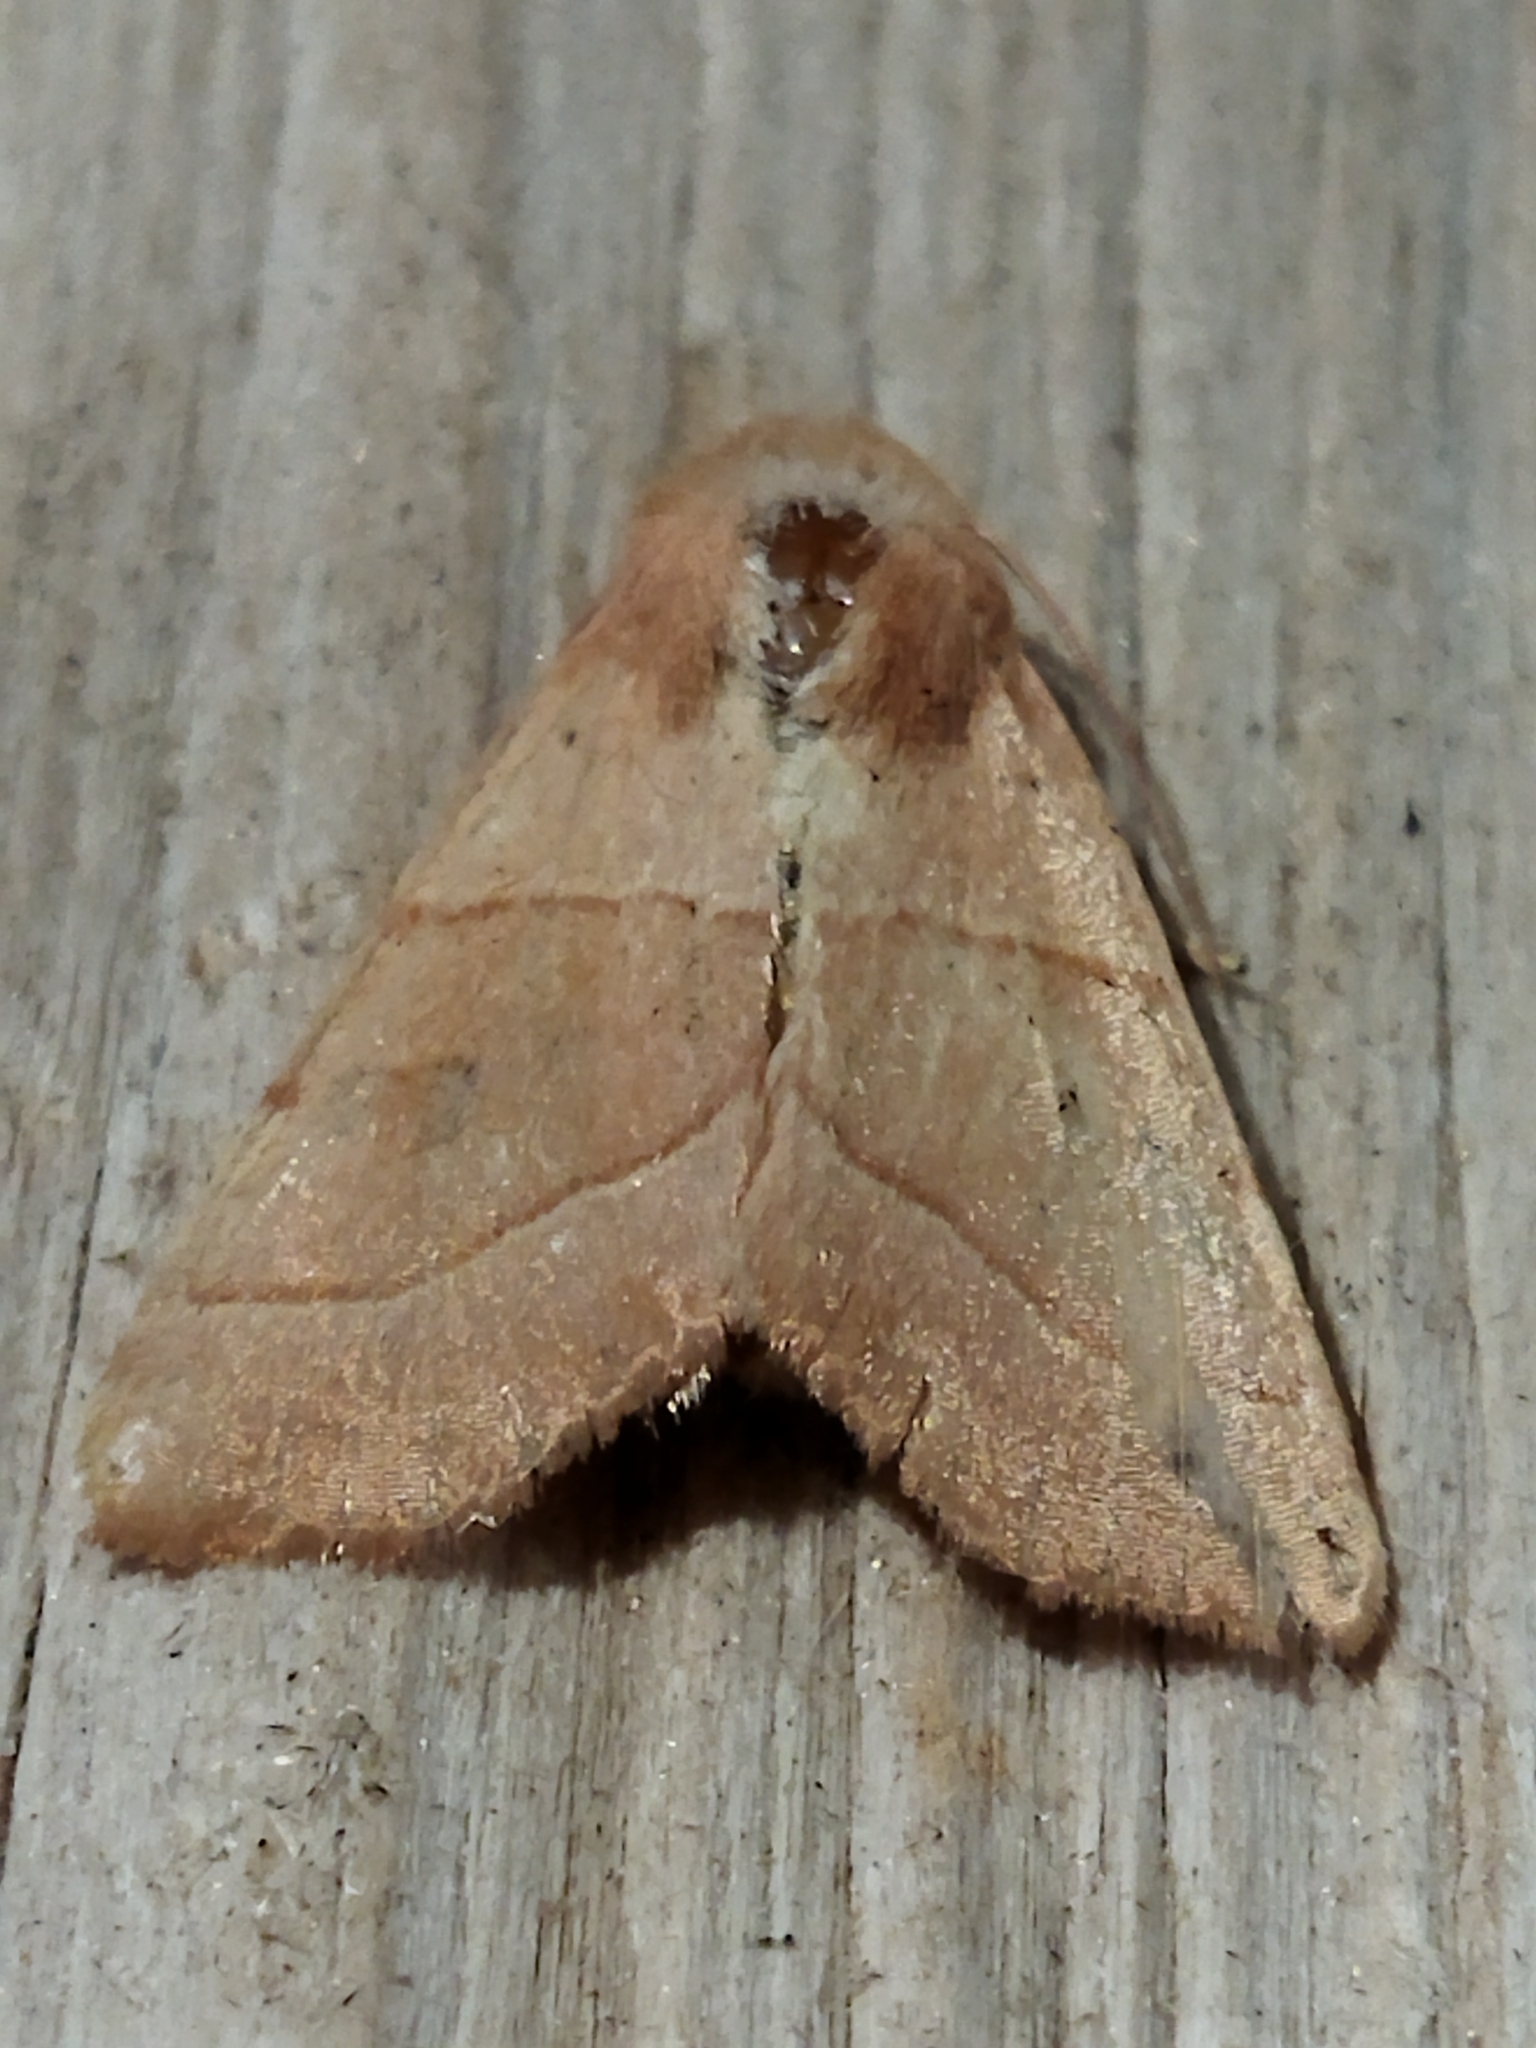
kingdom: Animalia
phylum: Arthropoda
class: Insecta
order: Lepidoptera
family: Noctuidae
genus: Atethmia
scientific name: Atethmia centrago
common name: Centre-barred sallow
